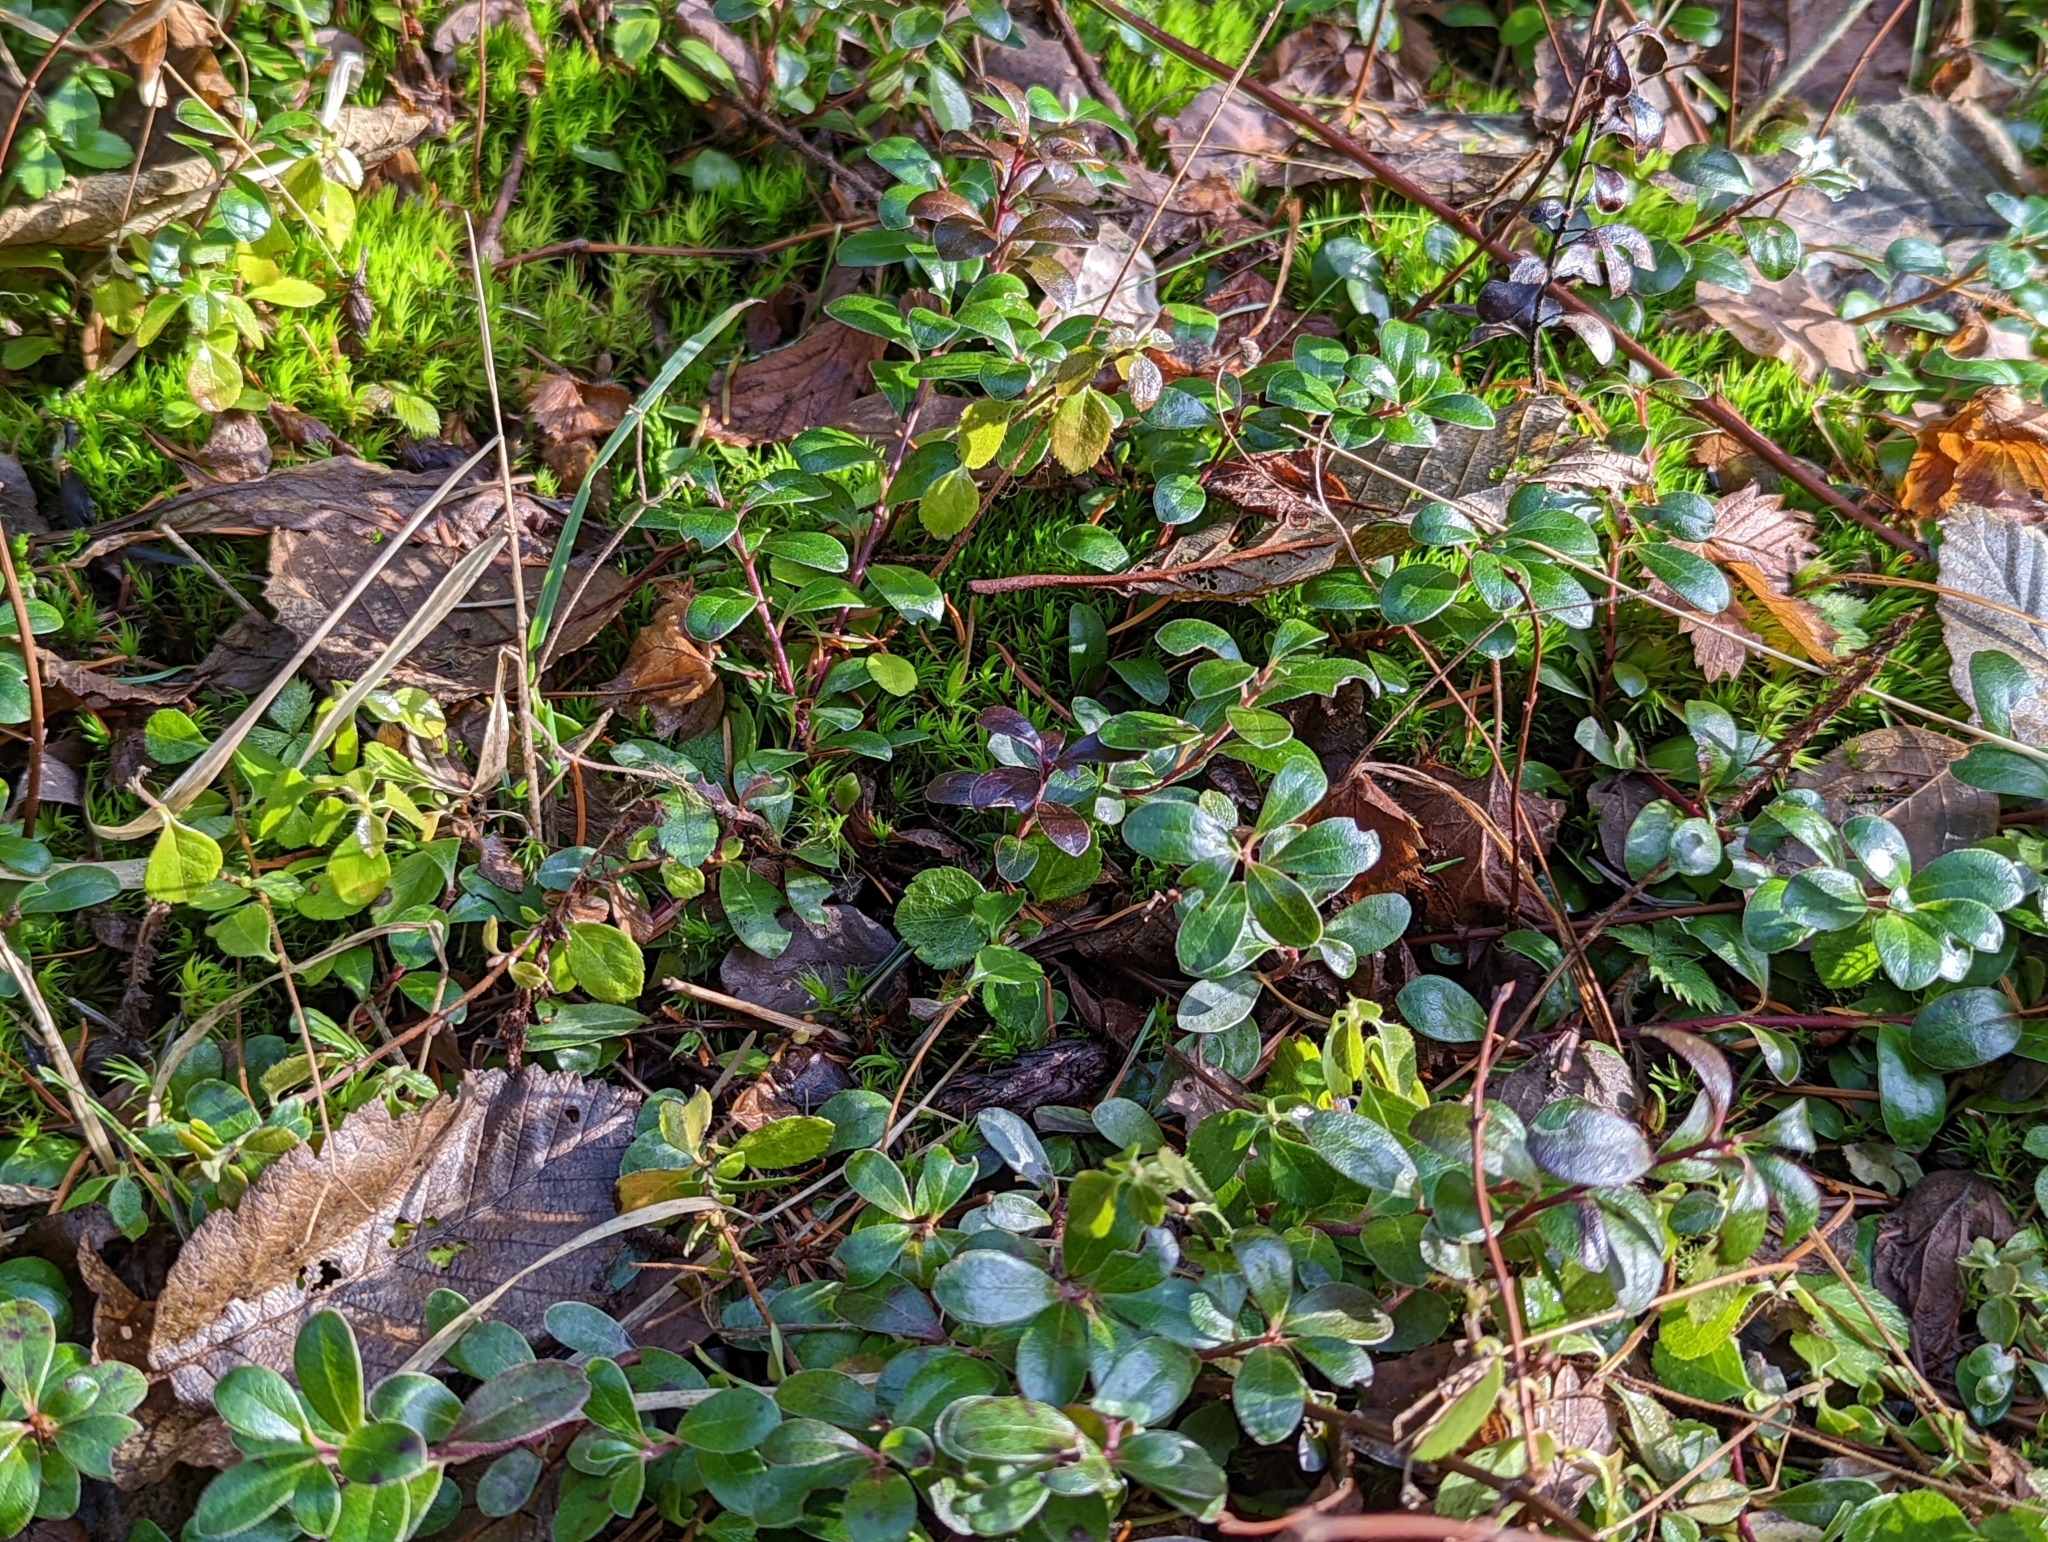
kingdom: Plantae
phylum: Tracheophyta
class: Magnoliopsida
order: Ericales
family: Ericaceae
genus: Arctostaphylos
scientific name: Arctostaphylos uva-ursi
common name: Bearberry
